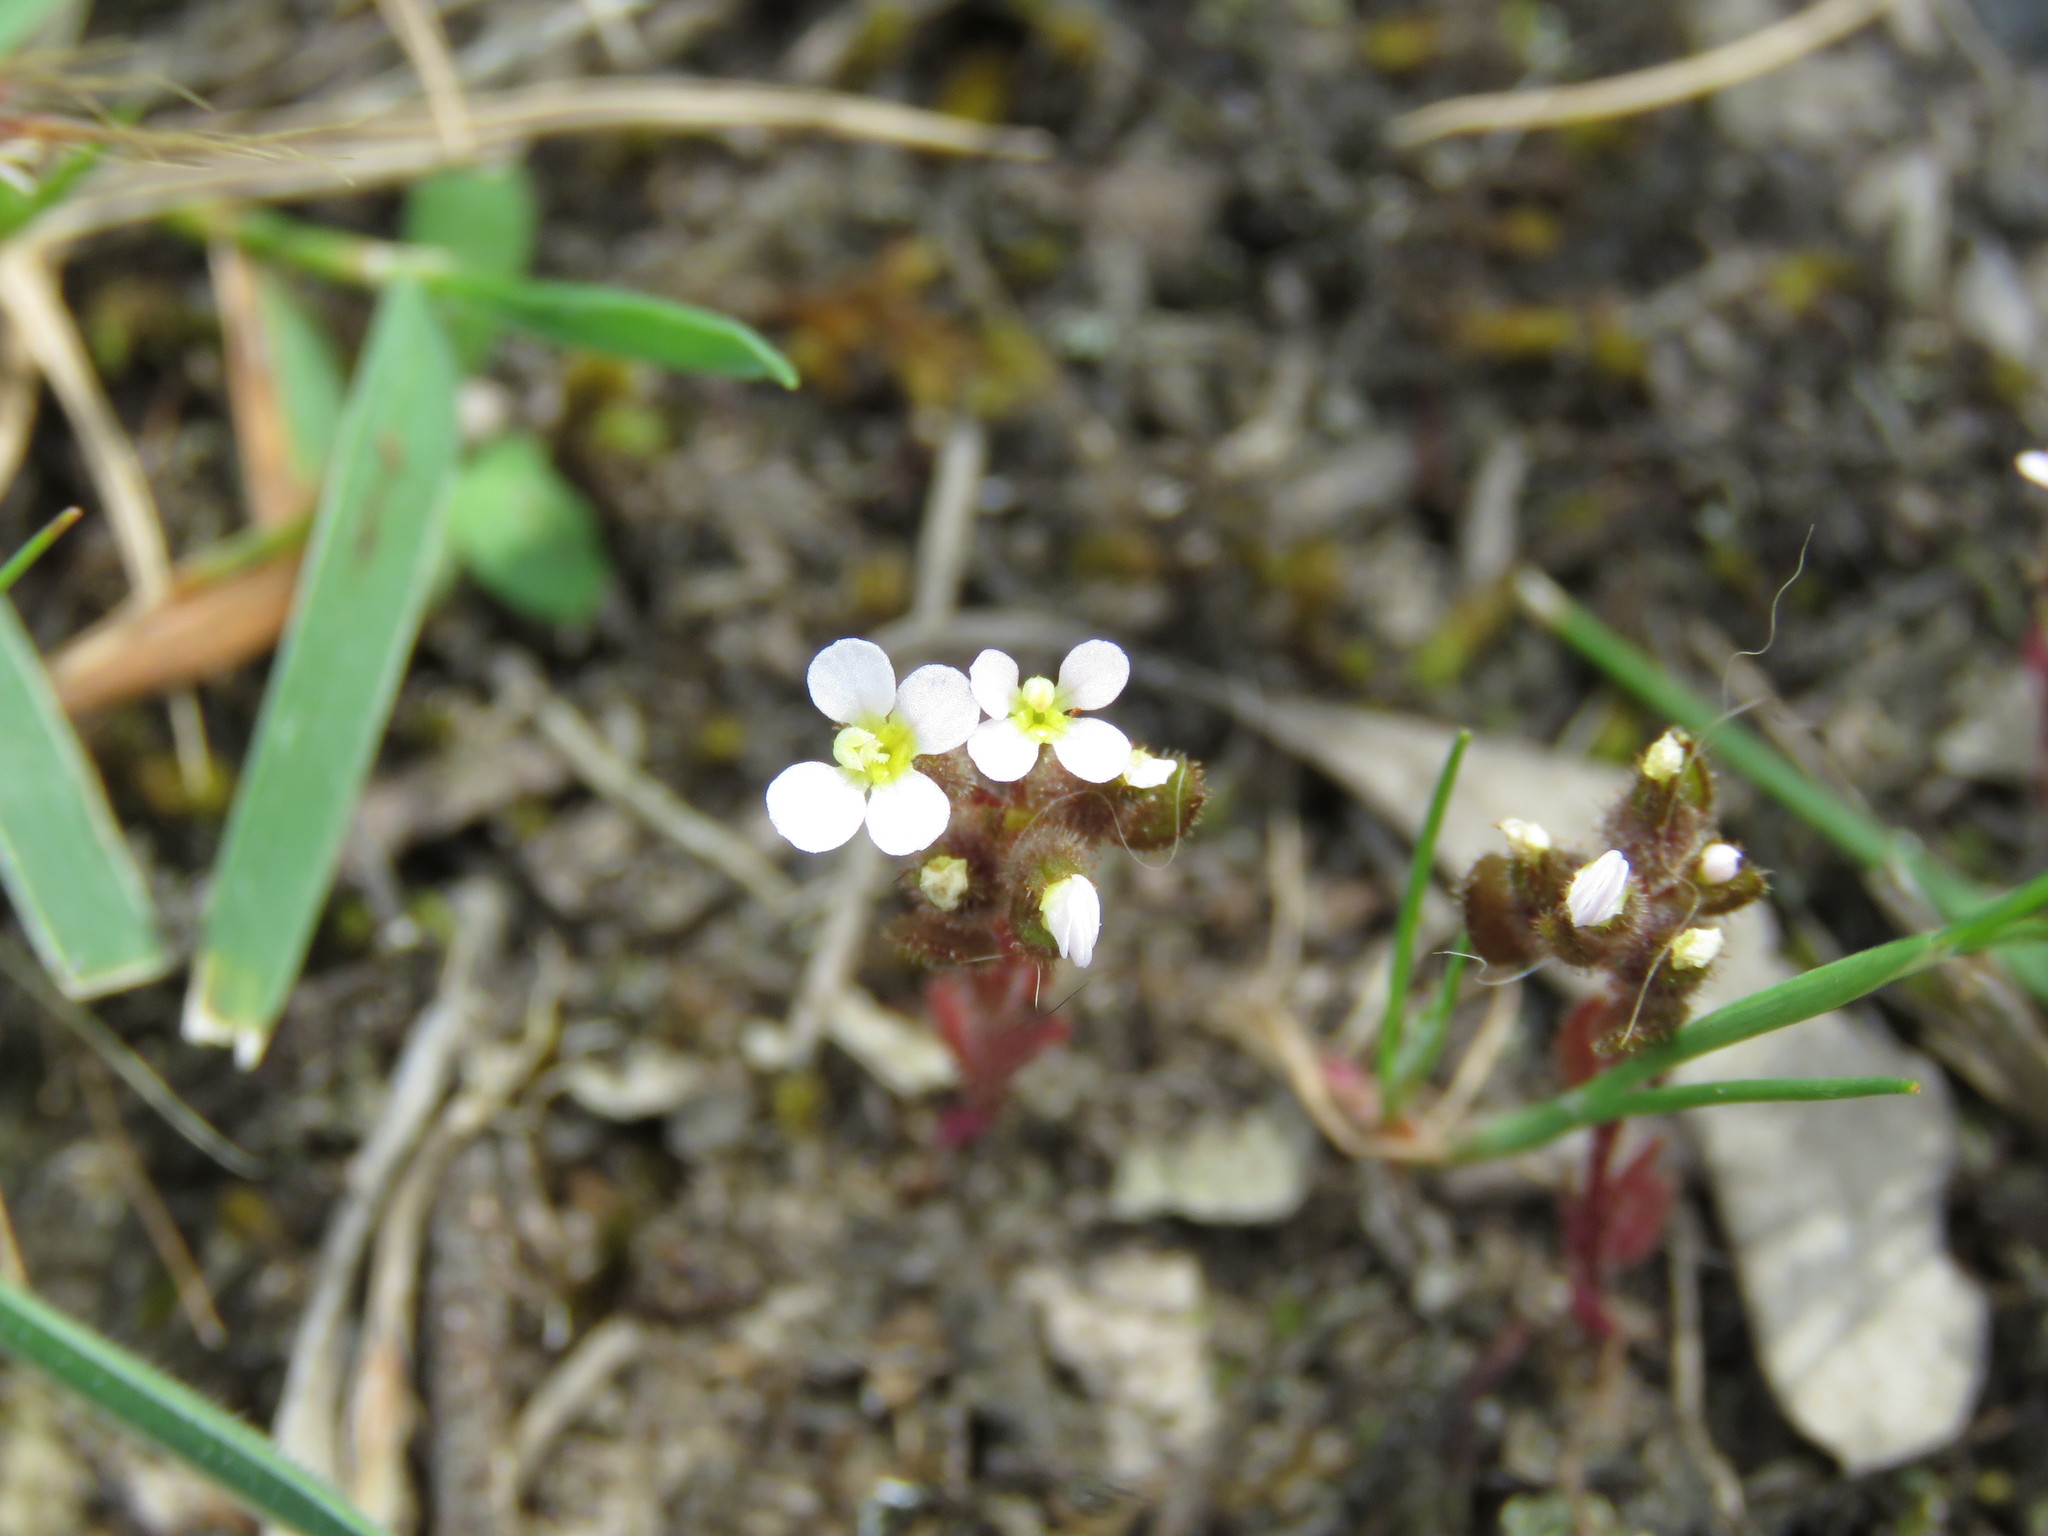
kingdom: Plantae
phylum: Tracheophyta
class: Magnoliopsida
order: Asterales
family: Stylidiaceae
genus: Levenhookia
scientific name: Levenhookia dubia
